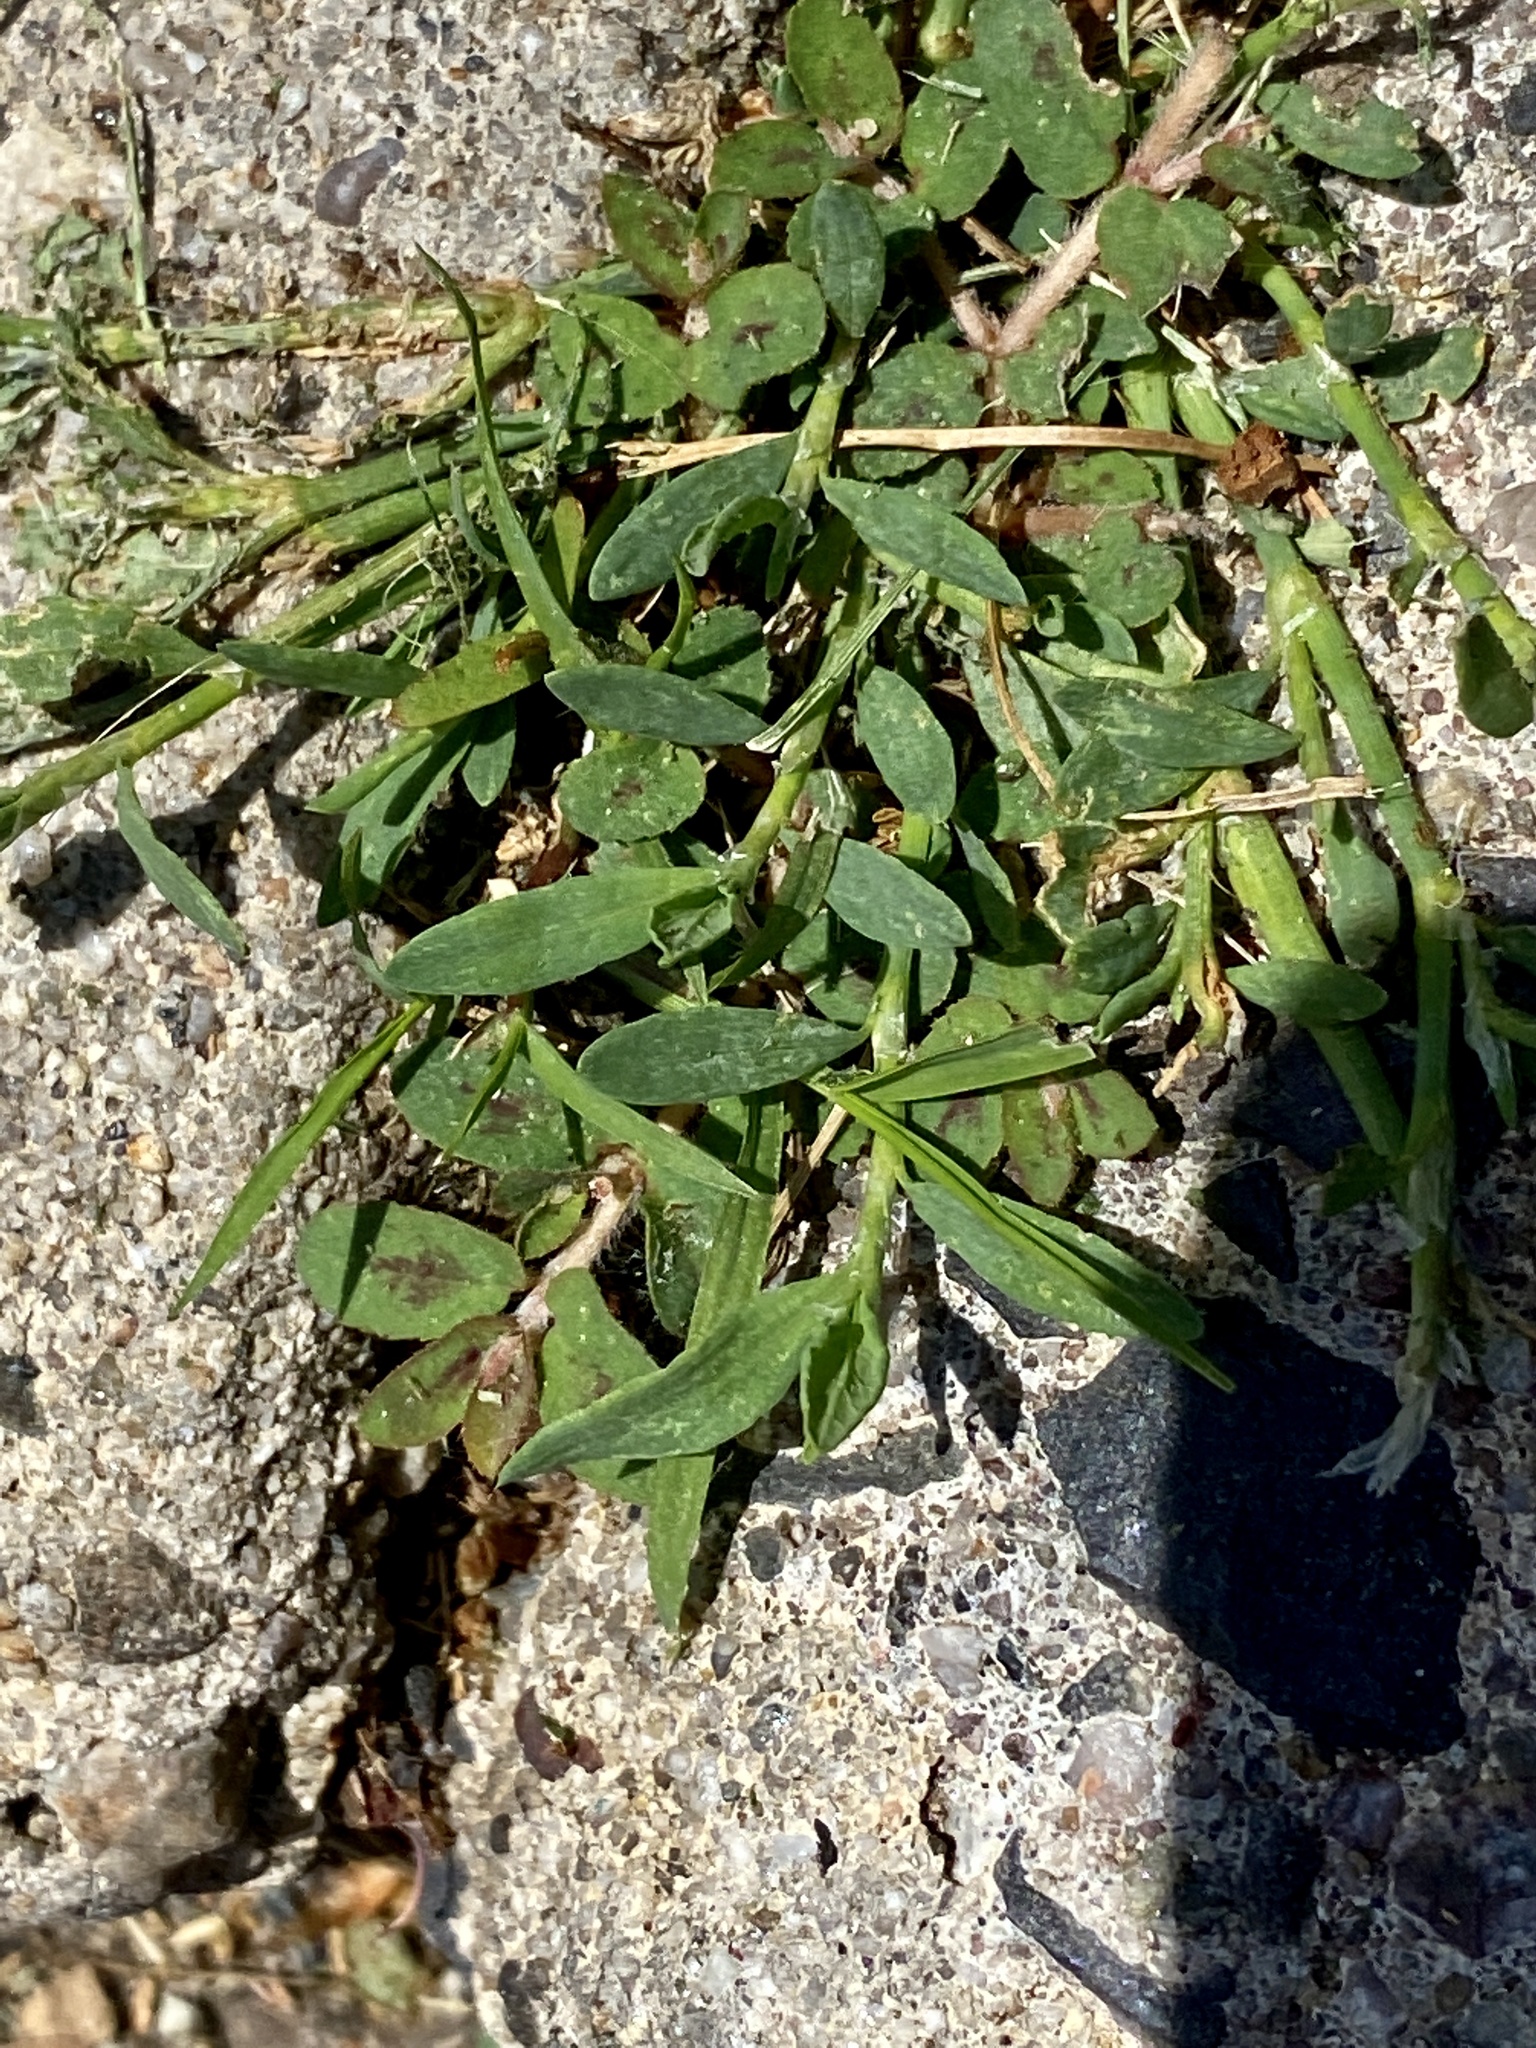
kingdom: Plantae
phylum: Tracheophyta
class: Magnoliopsida
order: Malpighiales
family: Euphorbiaceae
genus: Euphorbia
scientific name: Euphorbia maculata
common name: Spotted spurge
